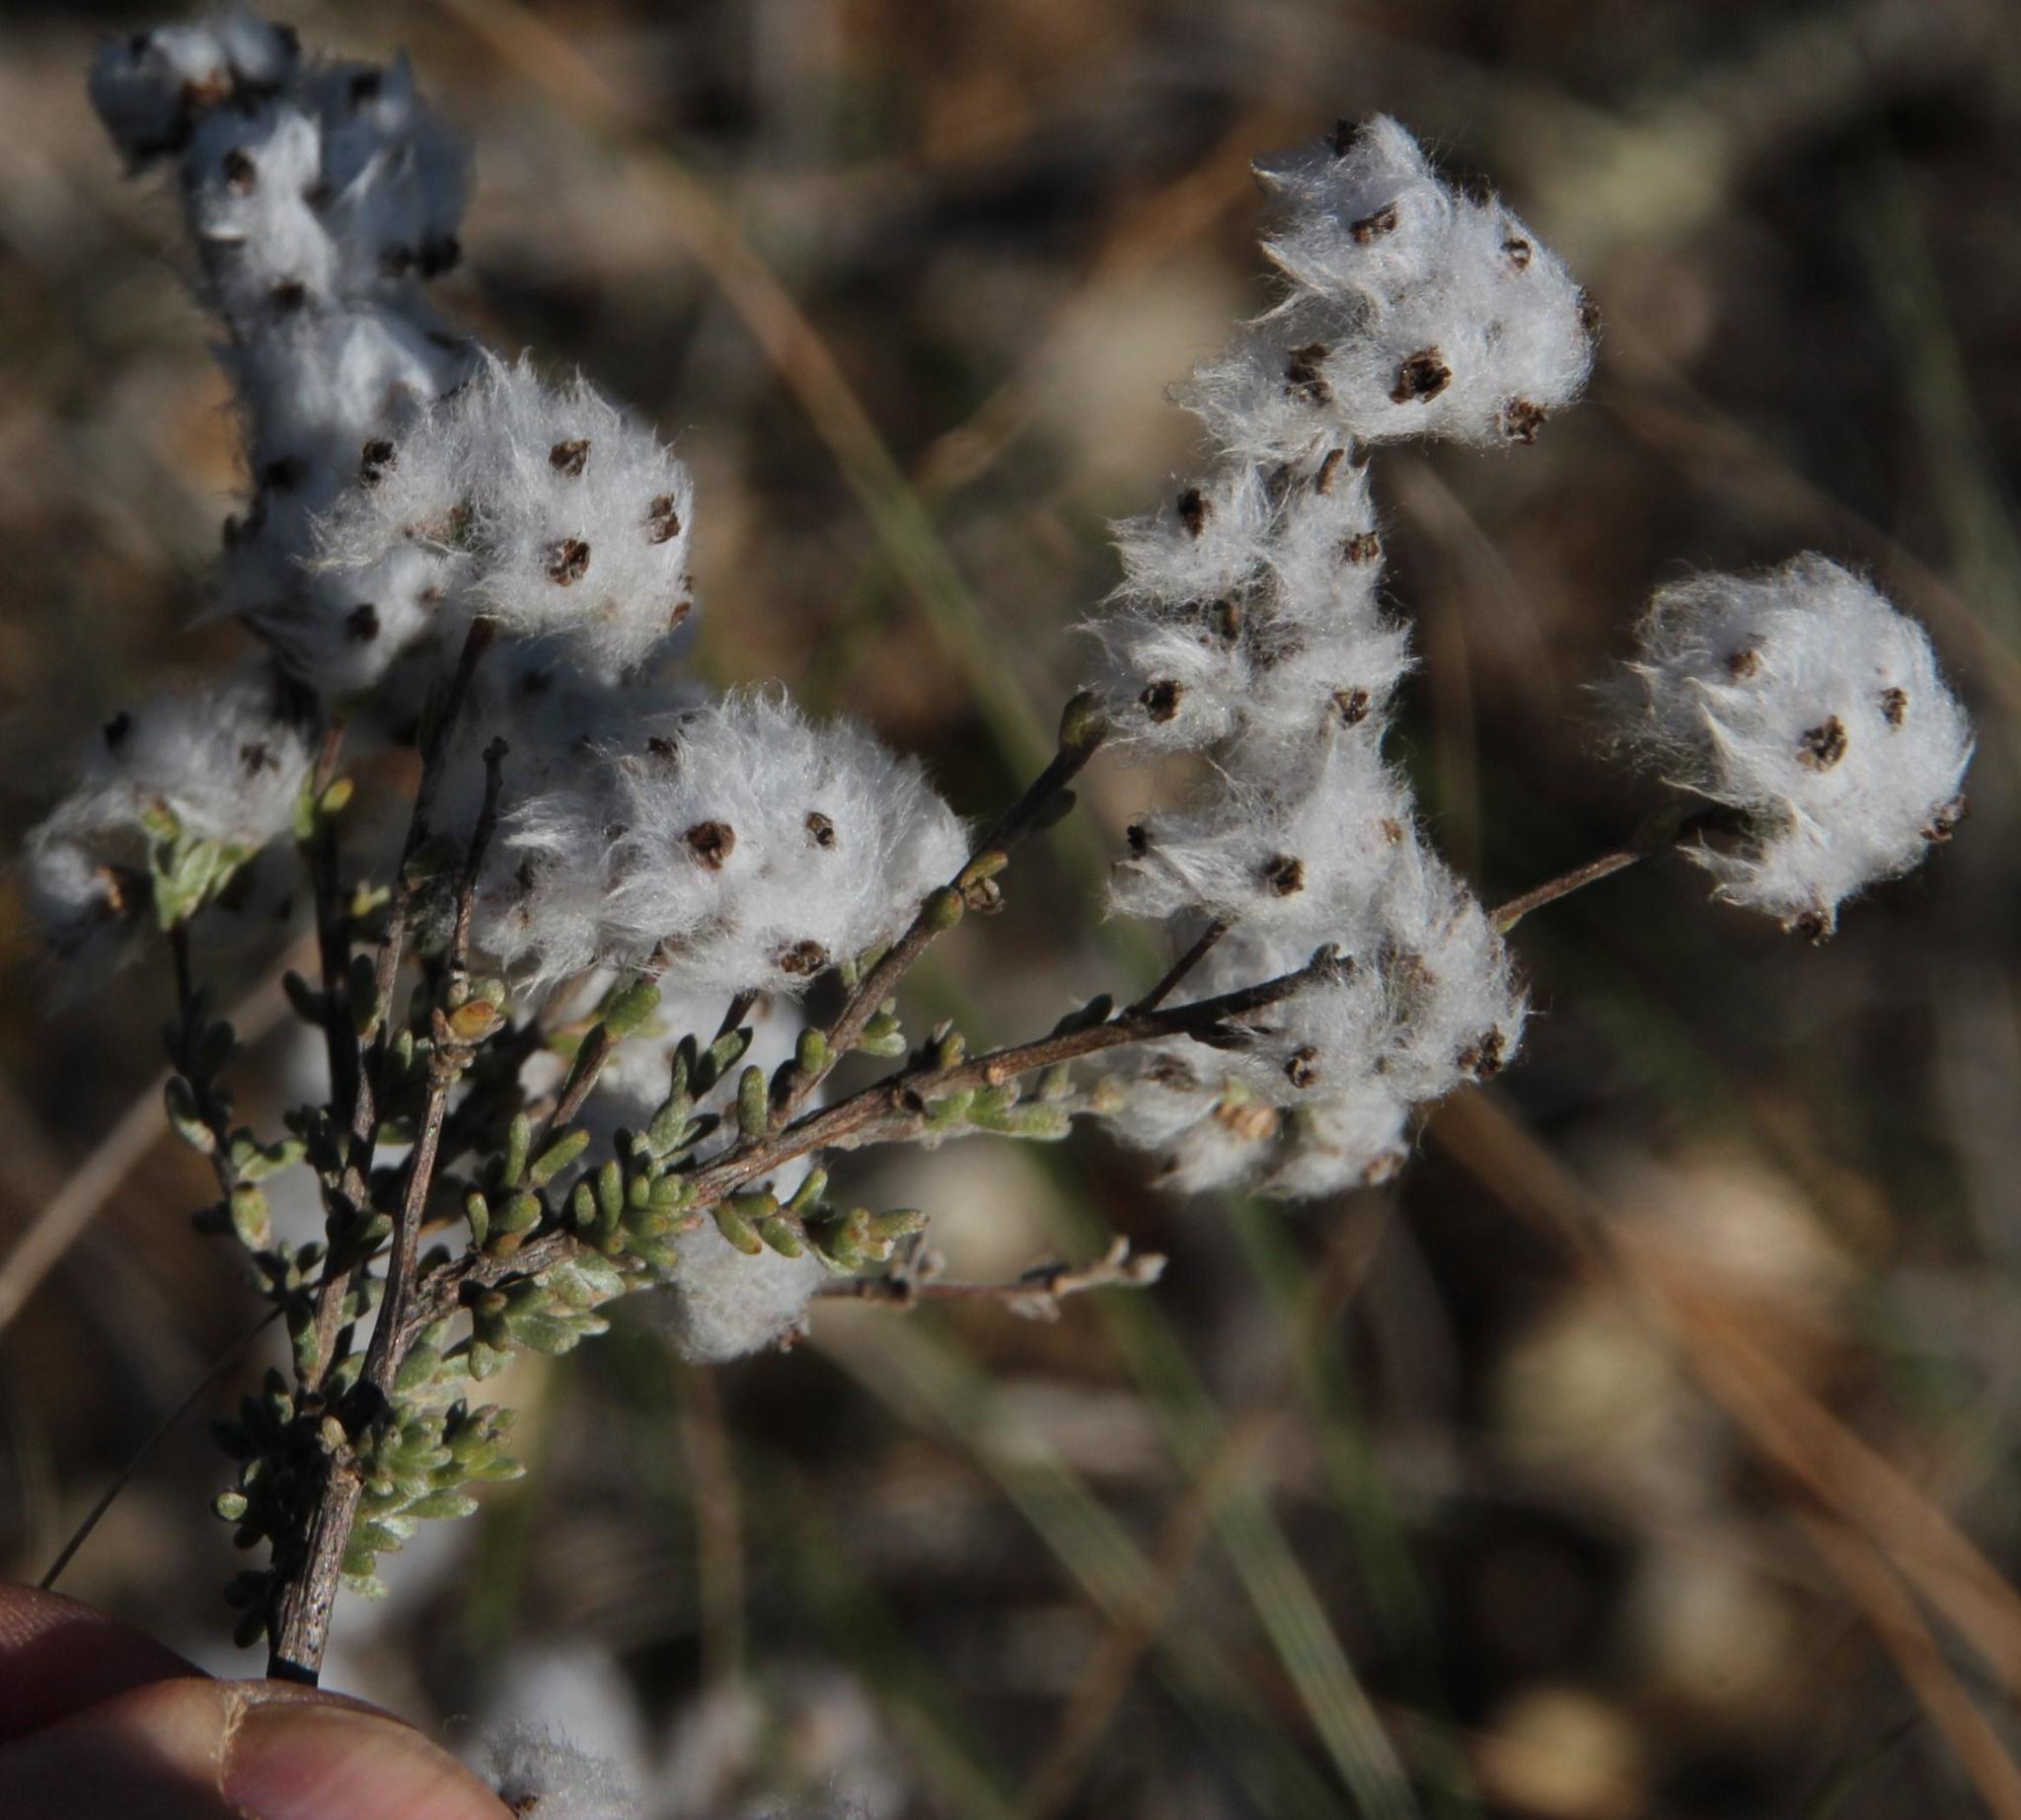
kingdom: Plantae
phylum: Tracheophyta
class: Magnoliopsida
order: Asterales
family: Asteraceae
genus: Eriocephalus
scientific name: Eriocephalus africanus
